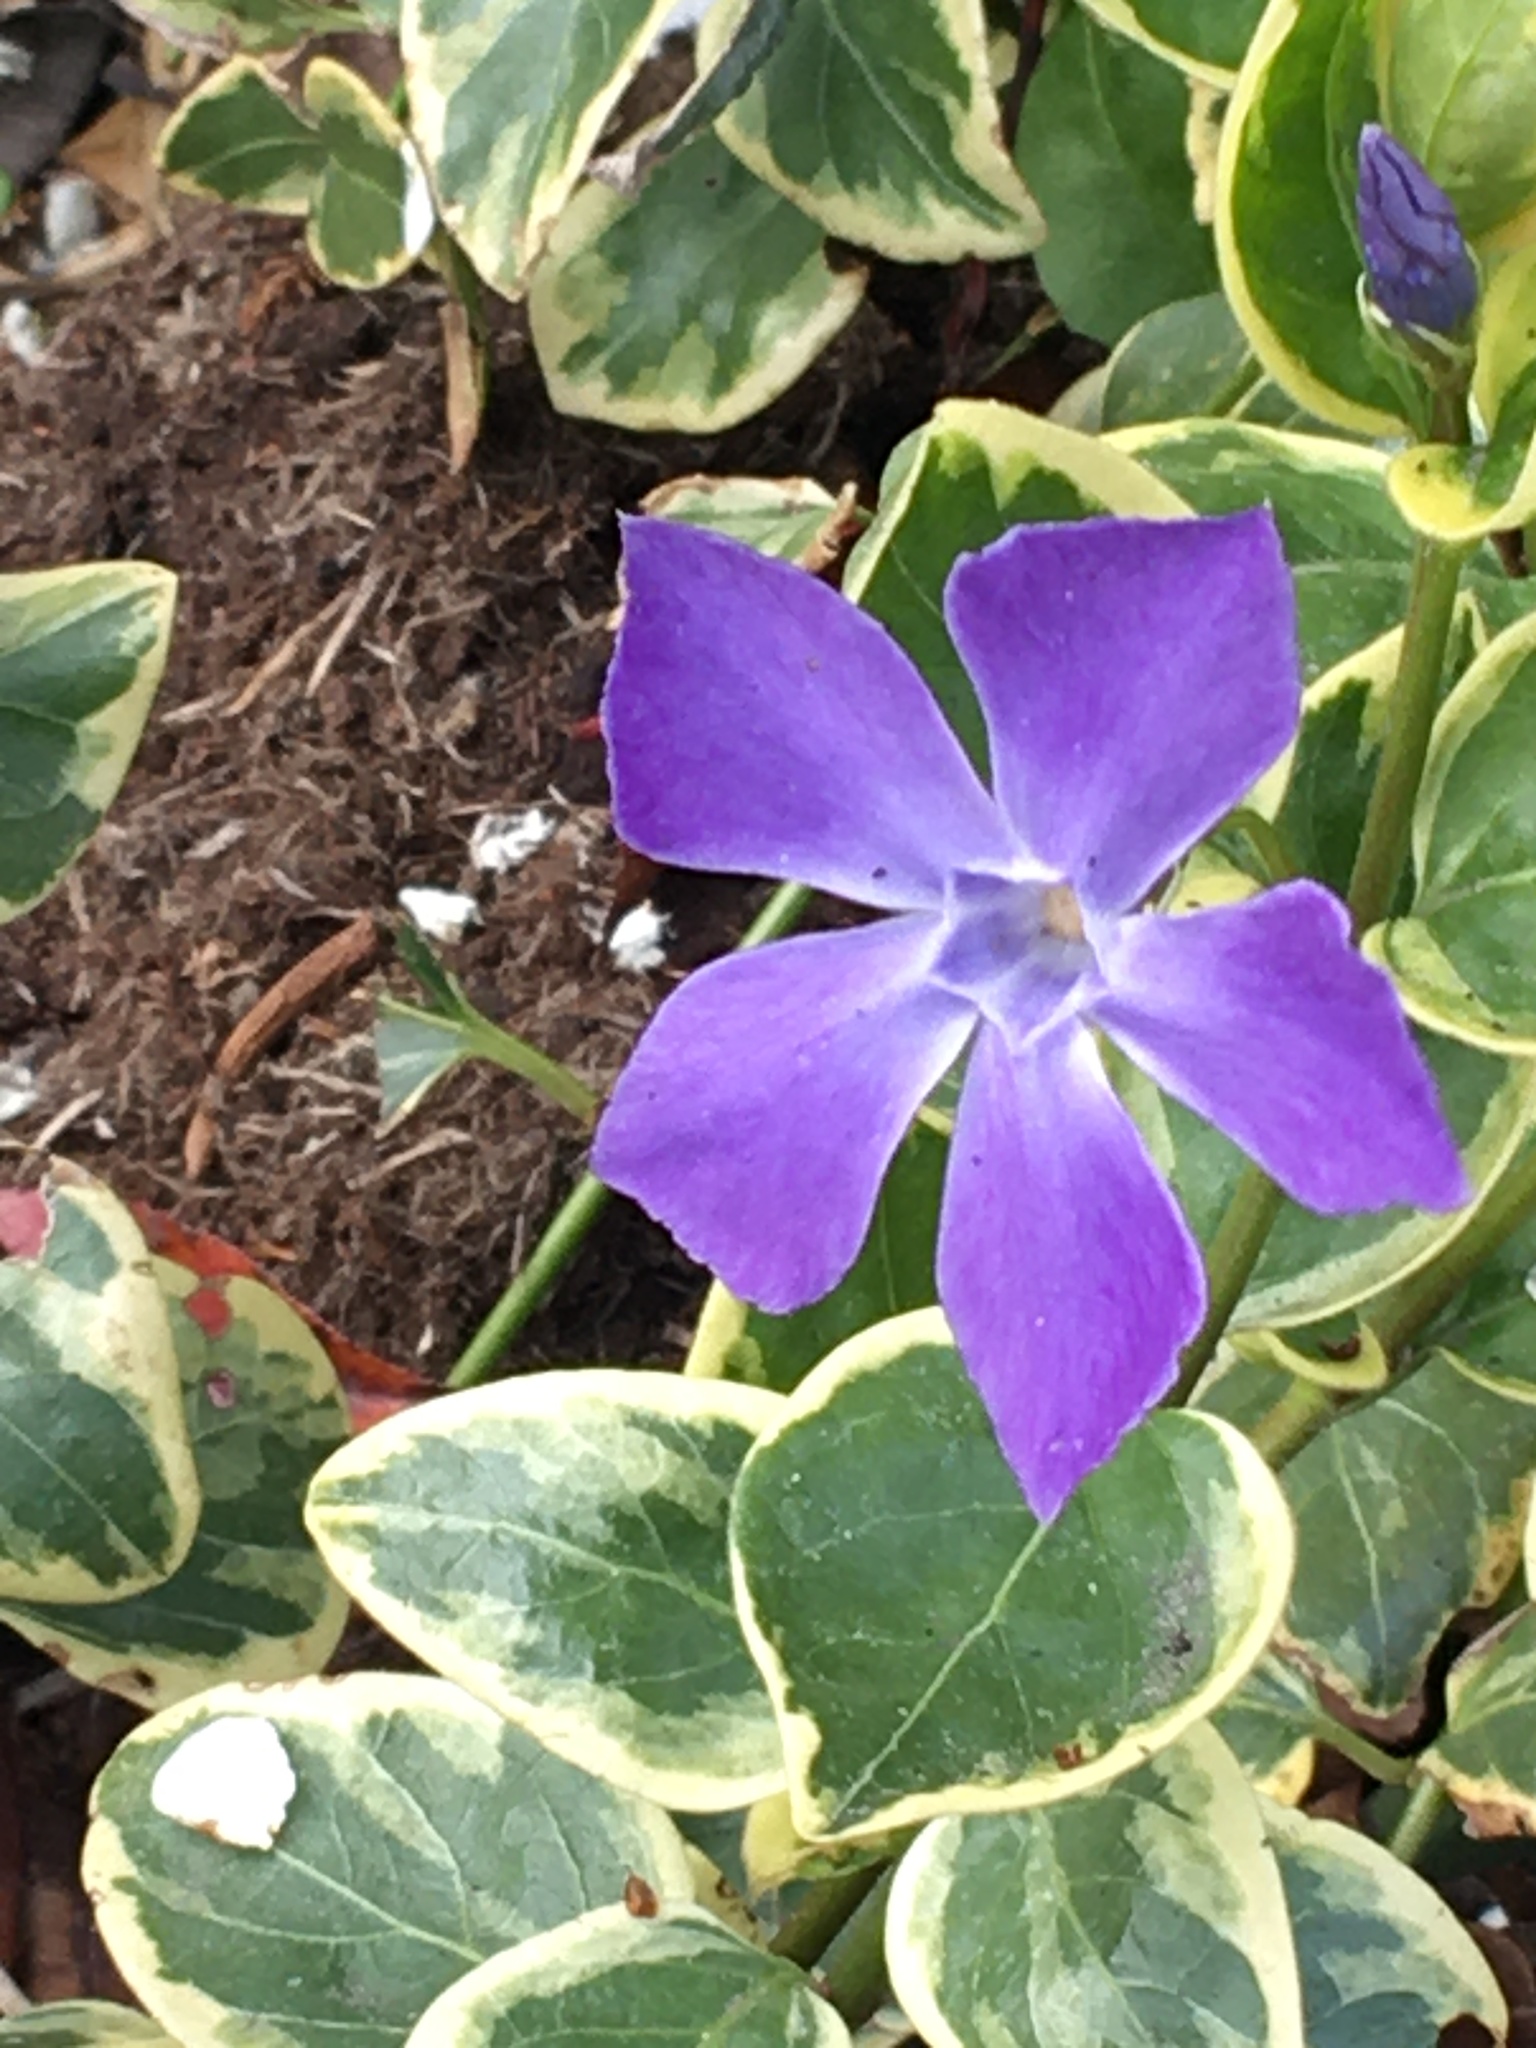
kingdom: Plantae
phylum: Tracheophyta
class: Magnoliopsida
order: Gentianales
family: Apocynaceae
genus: Vinca
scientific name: Vinca major
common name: Greater periwinkle
